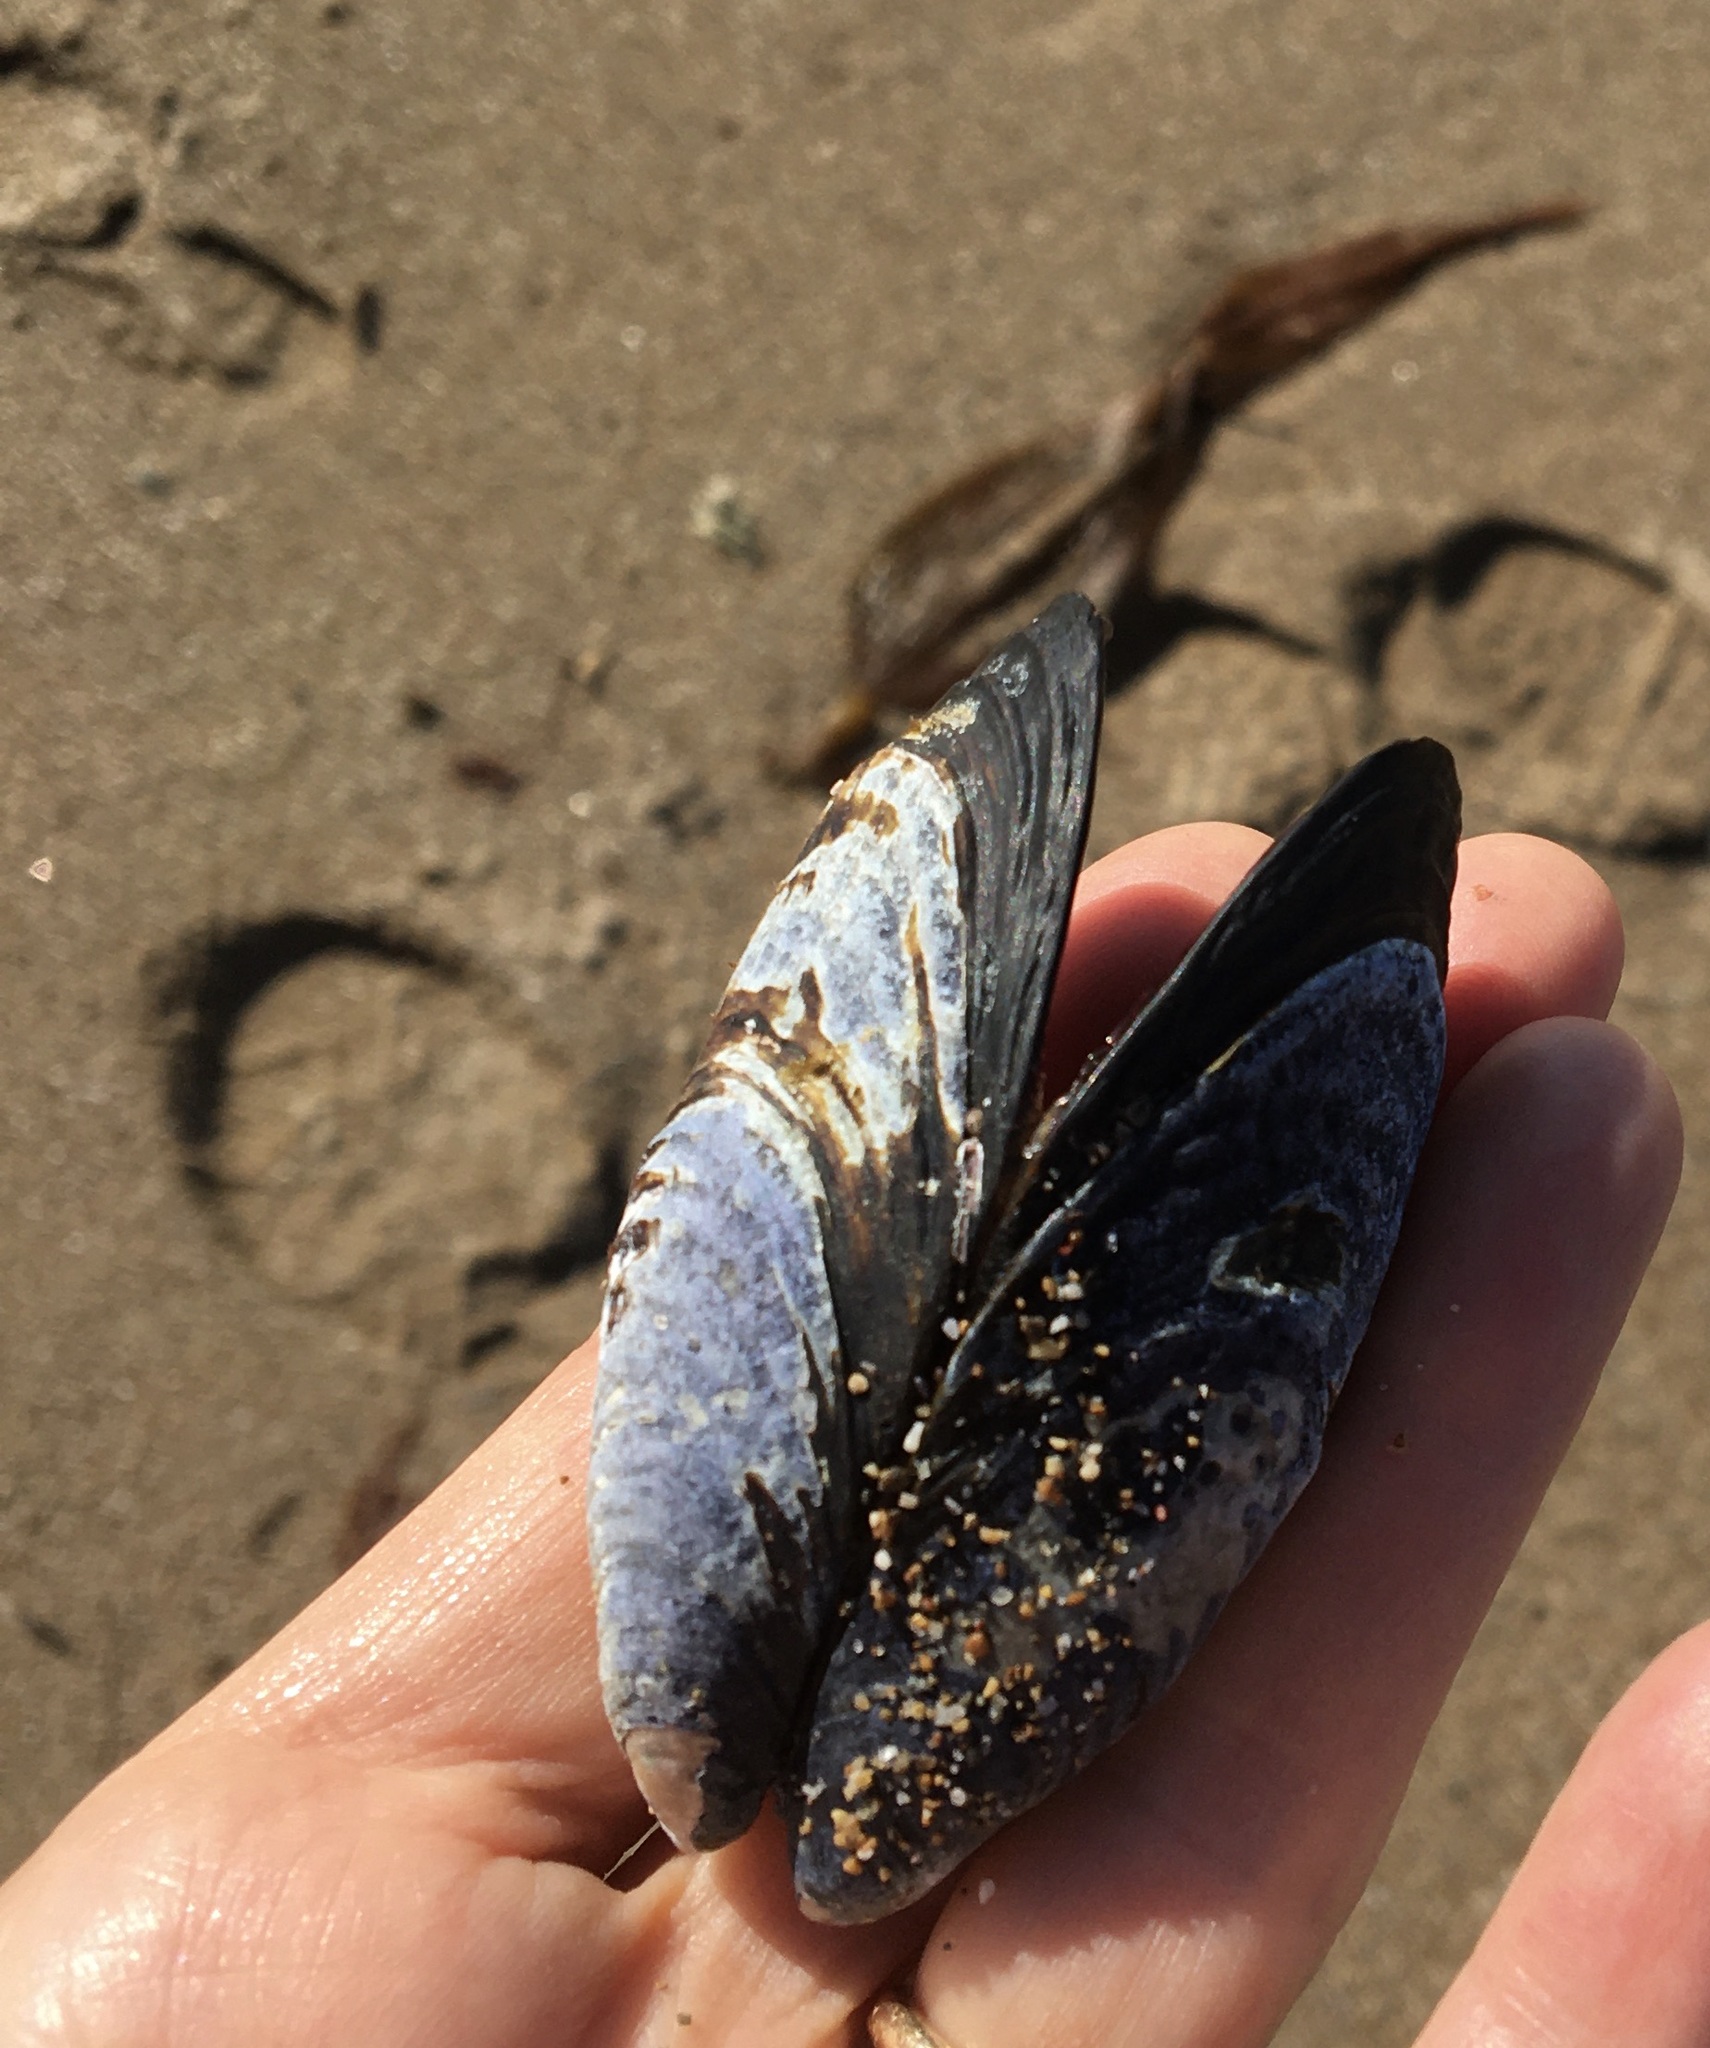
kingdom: Animalia
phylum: Mollusca
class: Bivalvia
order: Mytilida
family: Mytilidae
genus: Mytilus
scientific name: Mytilus californianus
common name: California mussel
